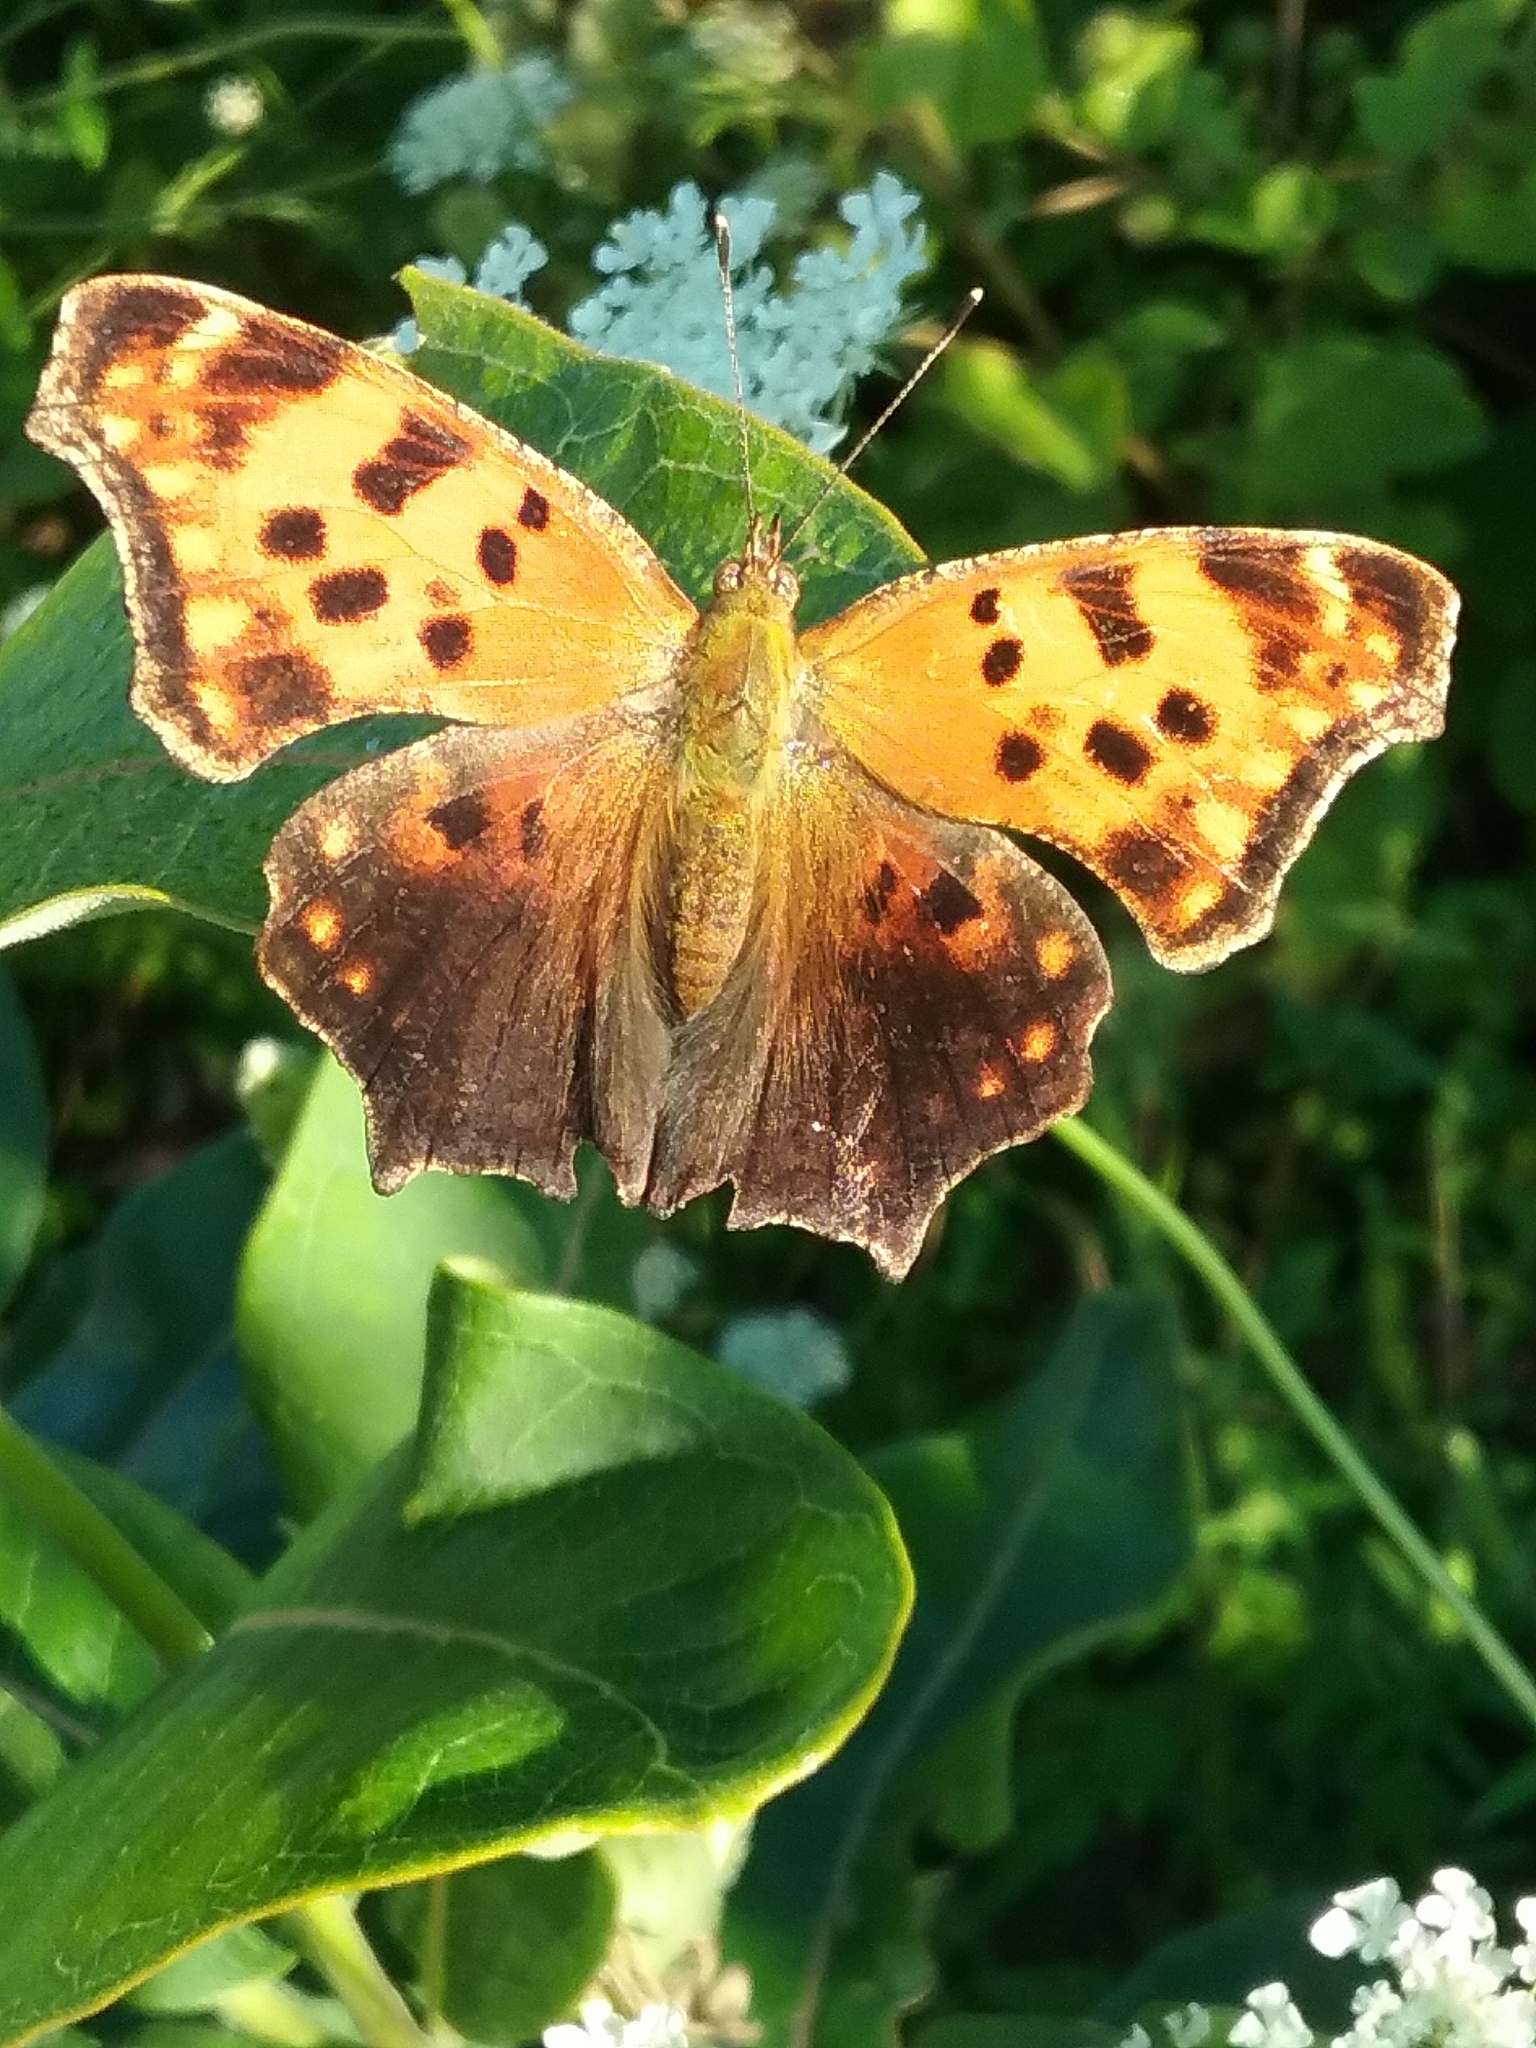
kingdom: Animalia
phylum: Arthropoda
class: Insecta
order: Lepidoptera
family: Nymphalidae
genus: Polygonia
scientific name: Polygonia comma
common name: Eastern comma
